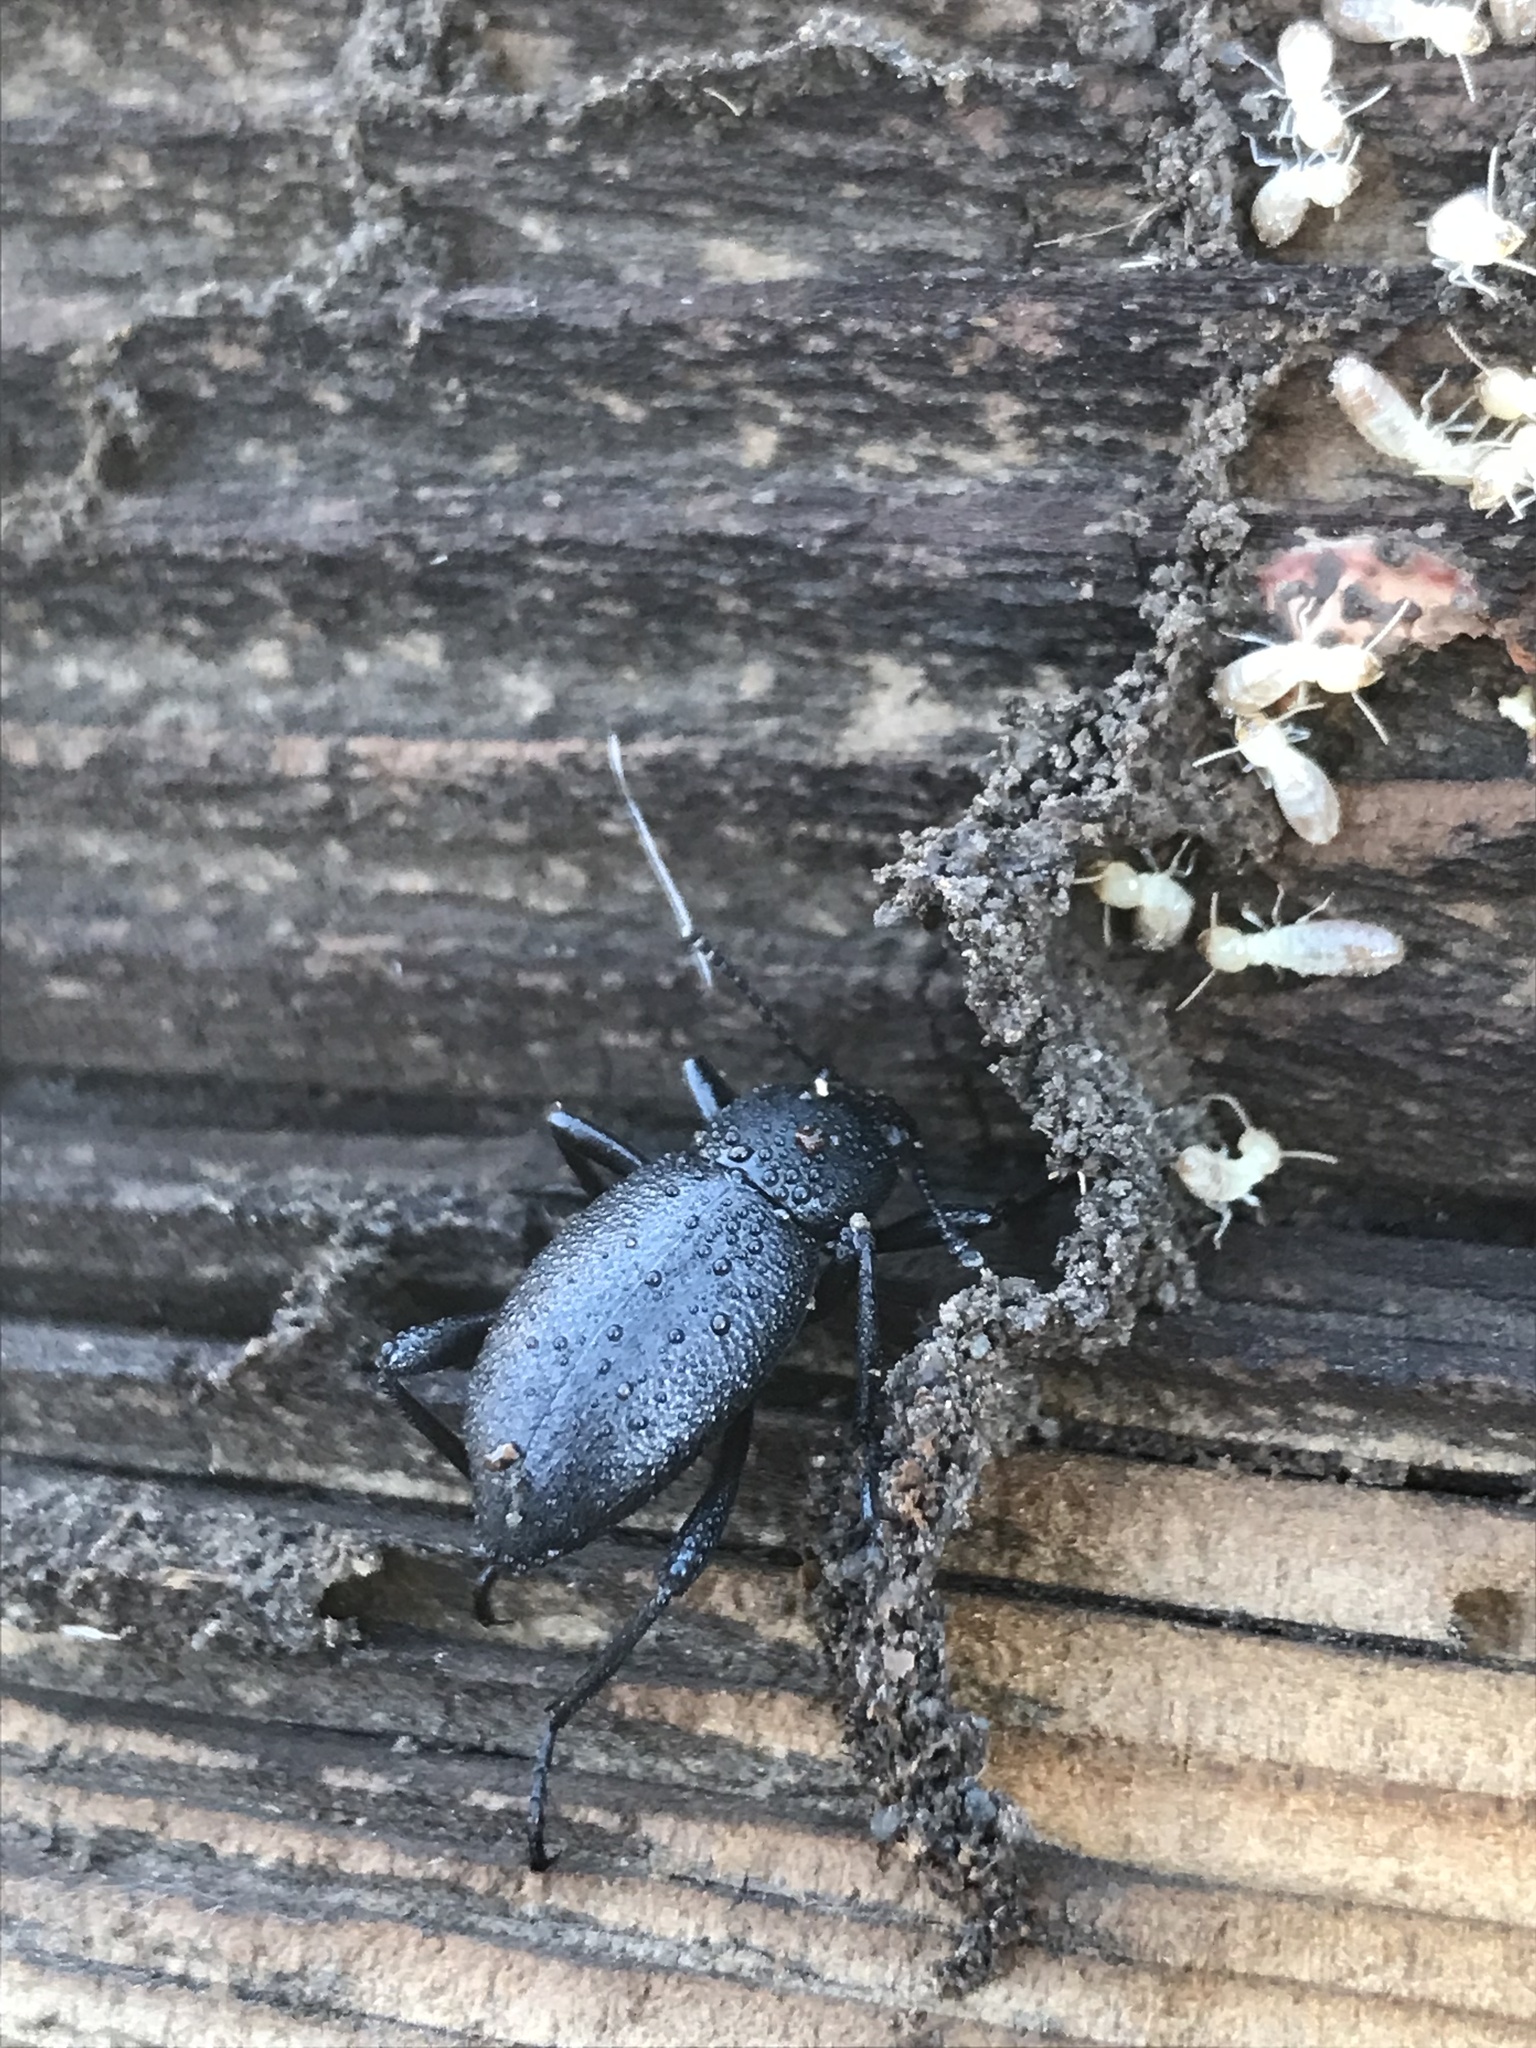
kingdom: Animalia
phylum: Arthropoda
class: Insecta
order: Coleoptera
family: Tenebrionidae
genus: Eleodes
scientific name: Eleodes granulata
